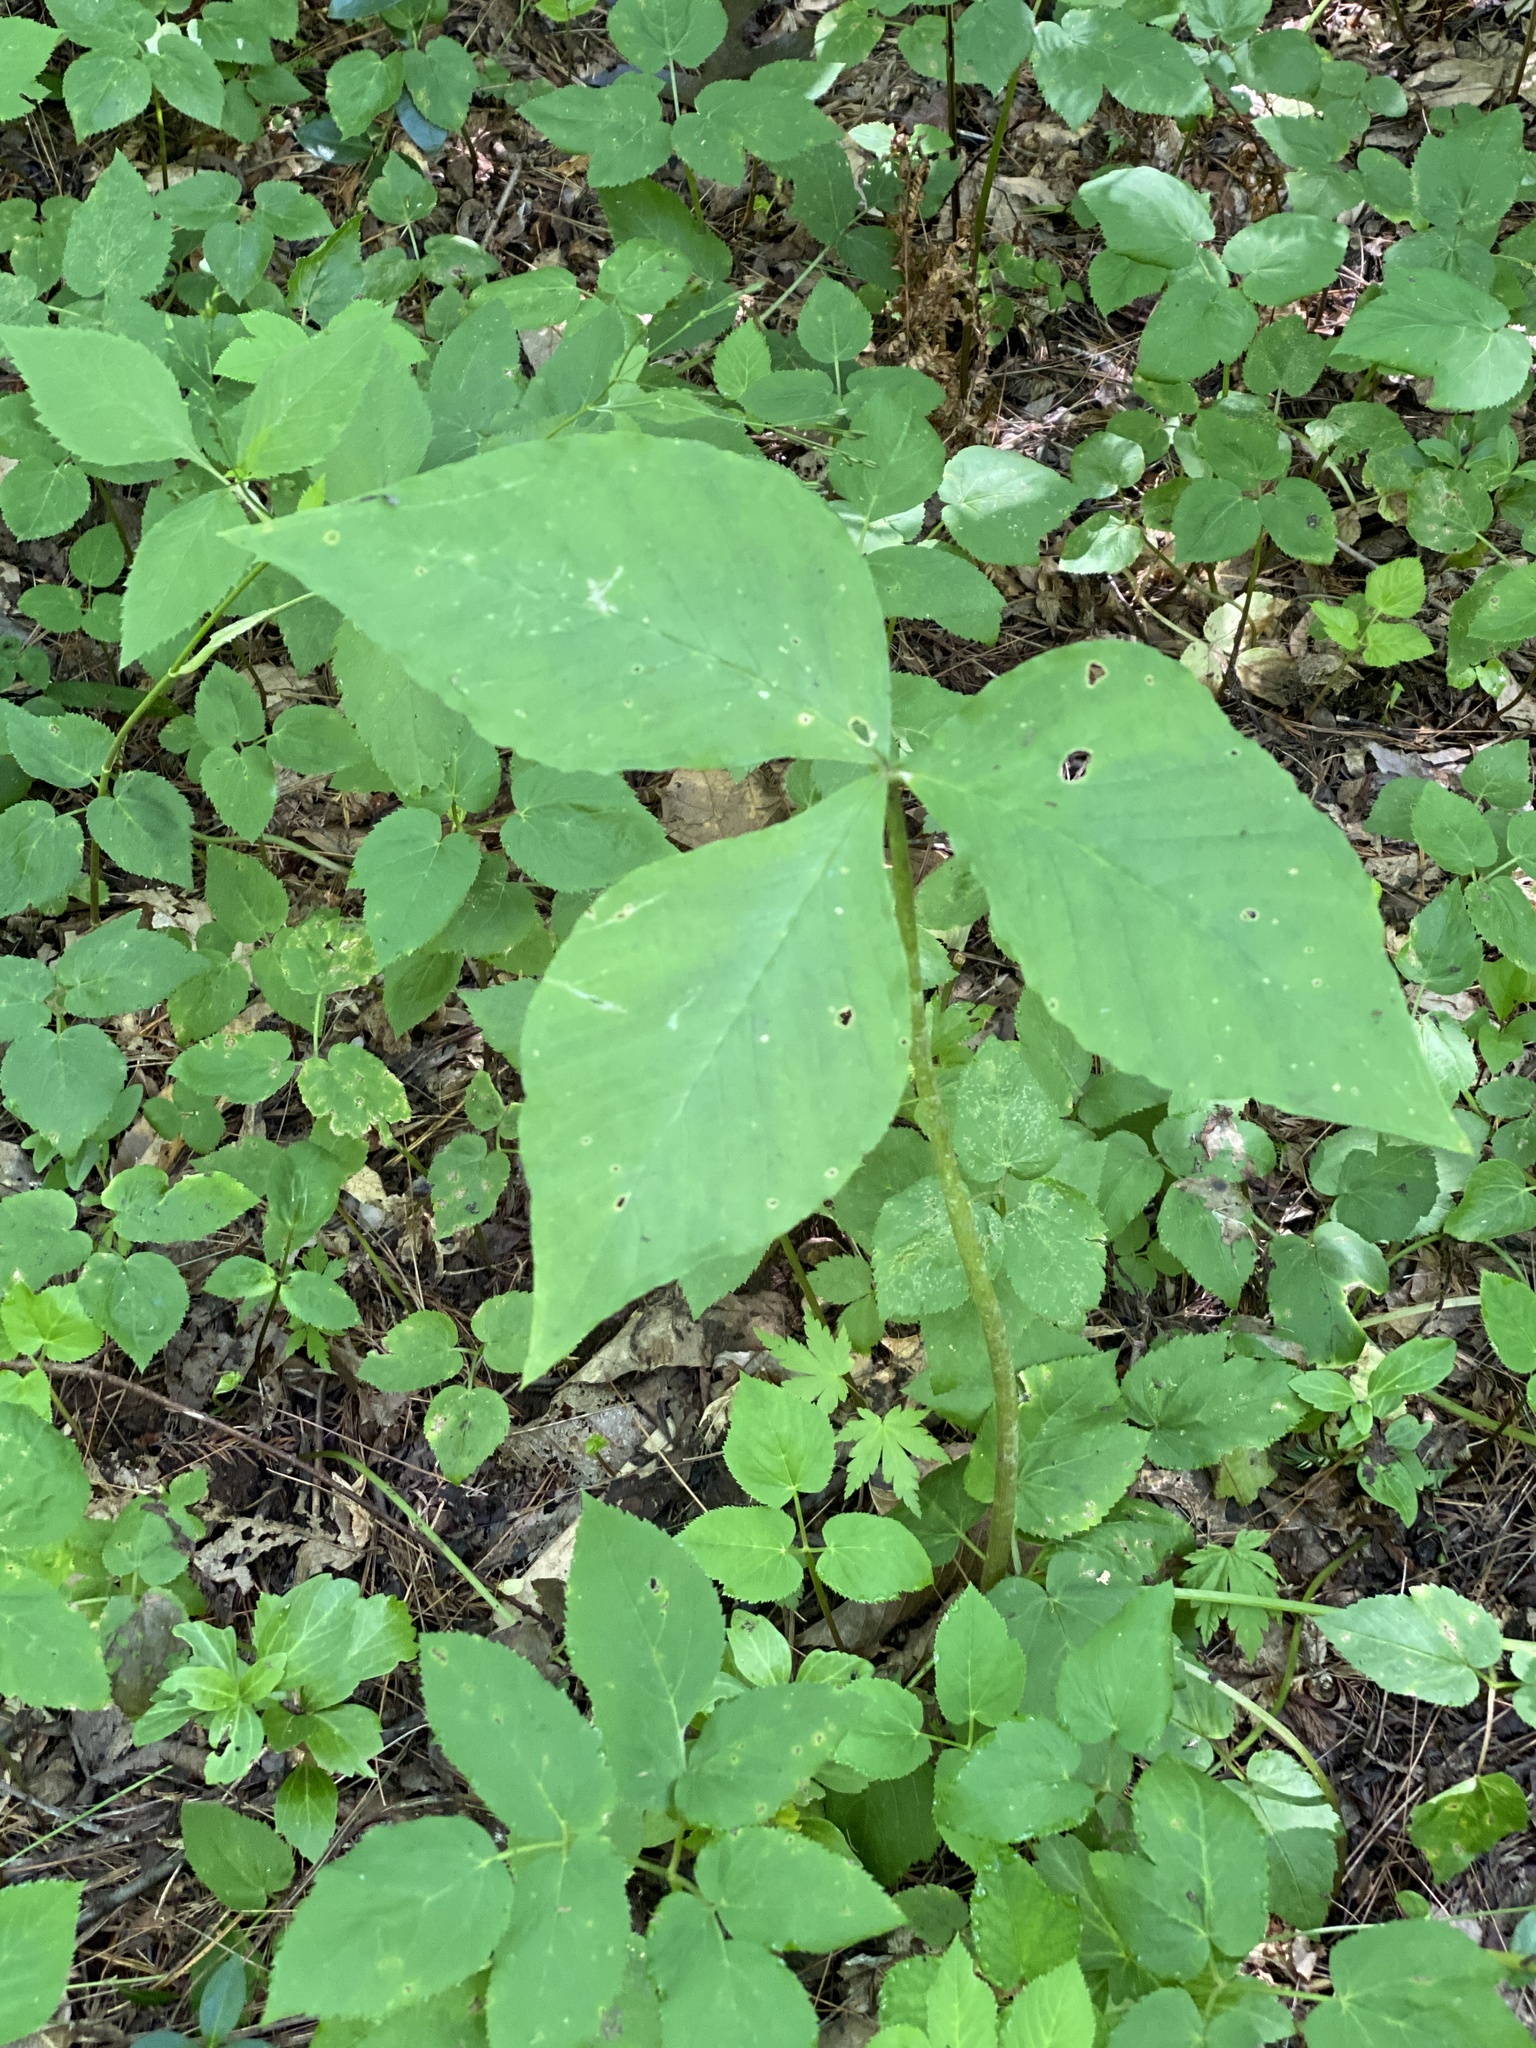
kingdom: Plantae
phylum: Tracheophyta
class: Liliopsida
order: Alismatales
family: Araceae
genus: Arisaema
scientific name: Arisaema triphyllum
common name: Jack-in-the-pulpit
